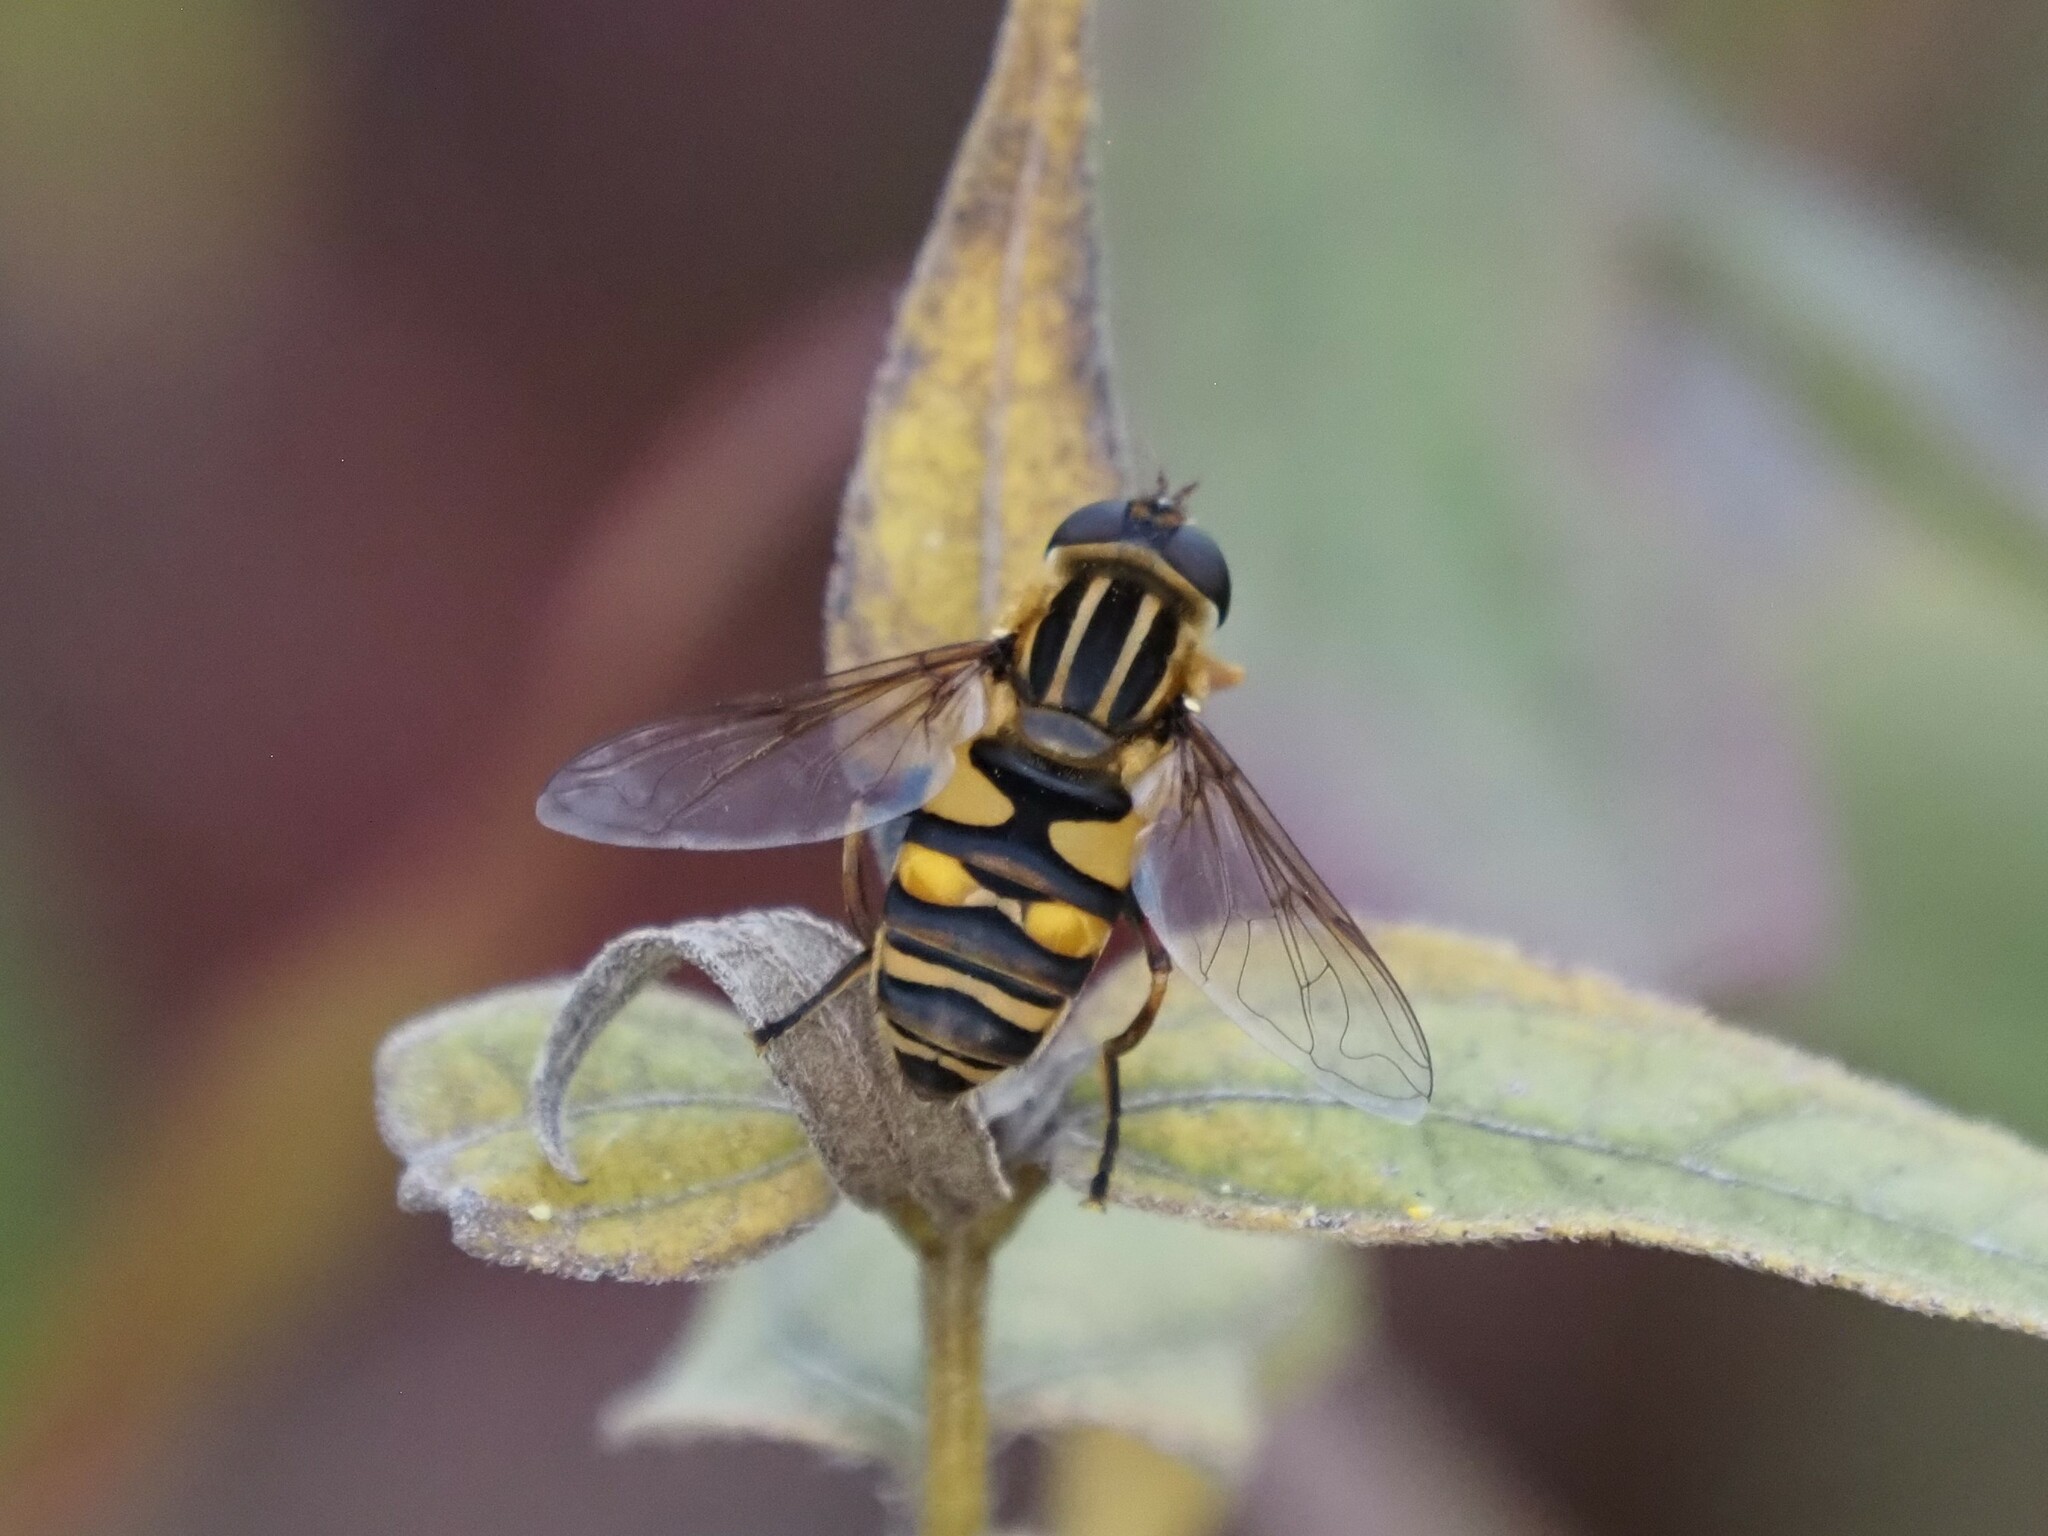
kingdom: Animalia
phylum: Arthropoda
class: Insecta
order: Diptera
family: Syrphidae
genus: Helophilus
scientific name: Helophilus fasciatus
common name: Narrow-headed marsh fly
